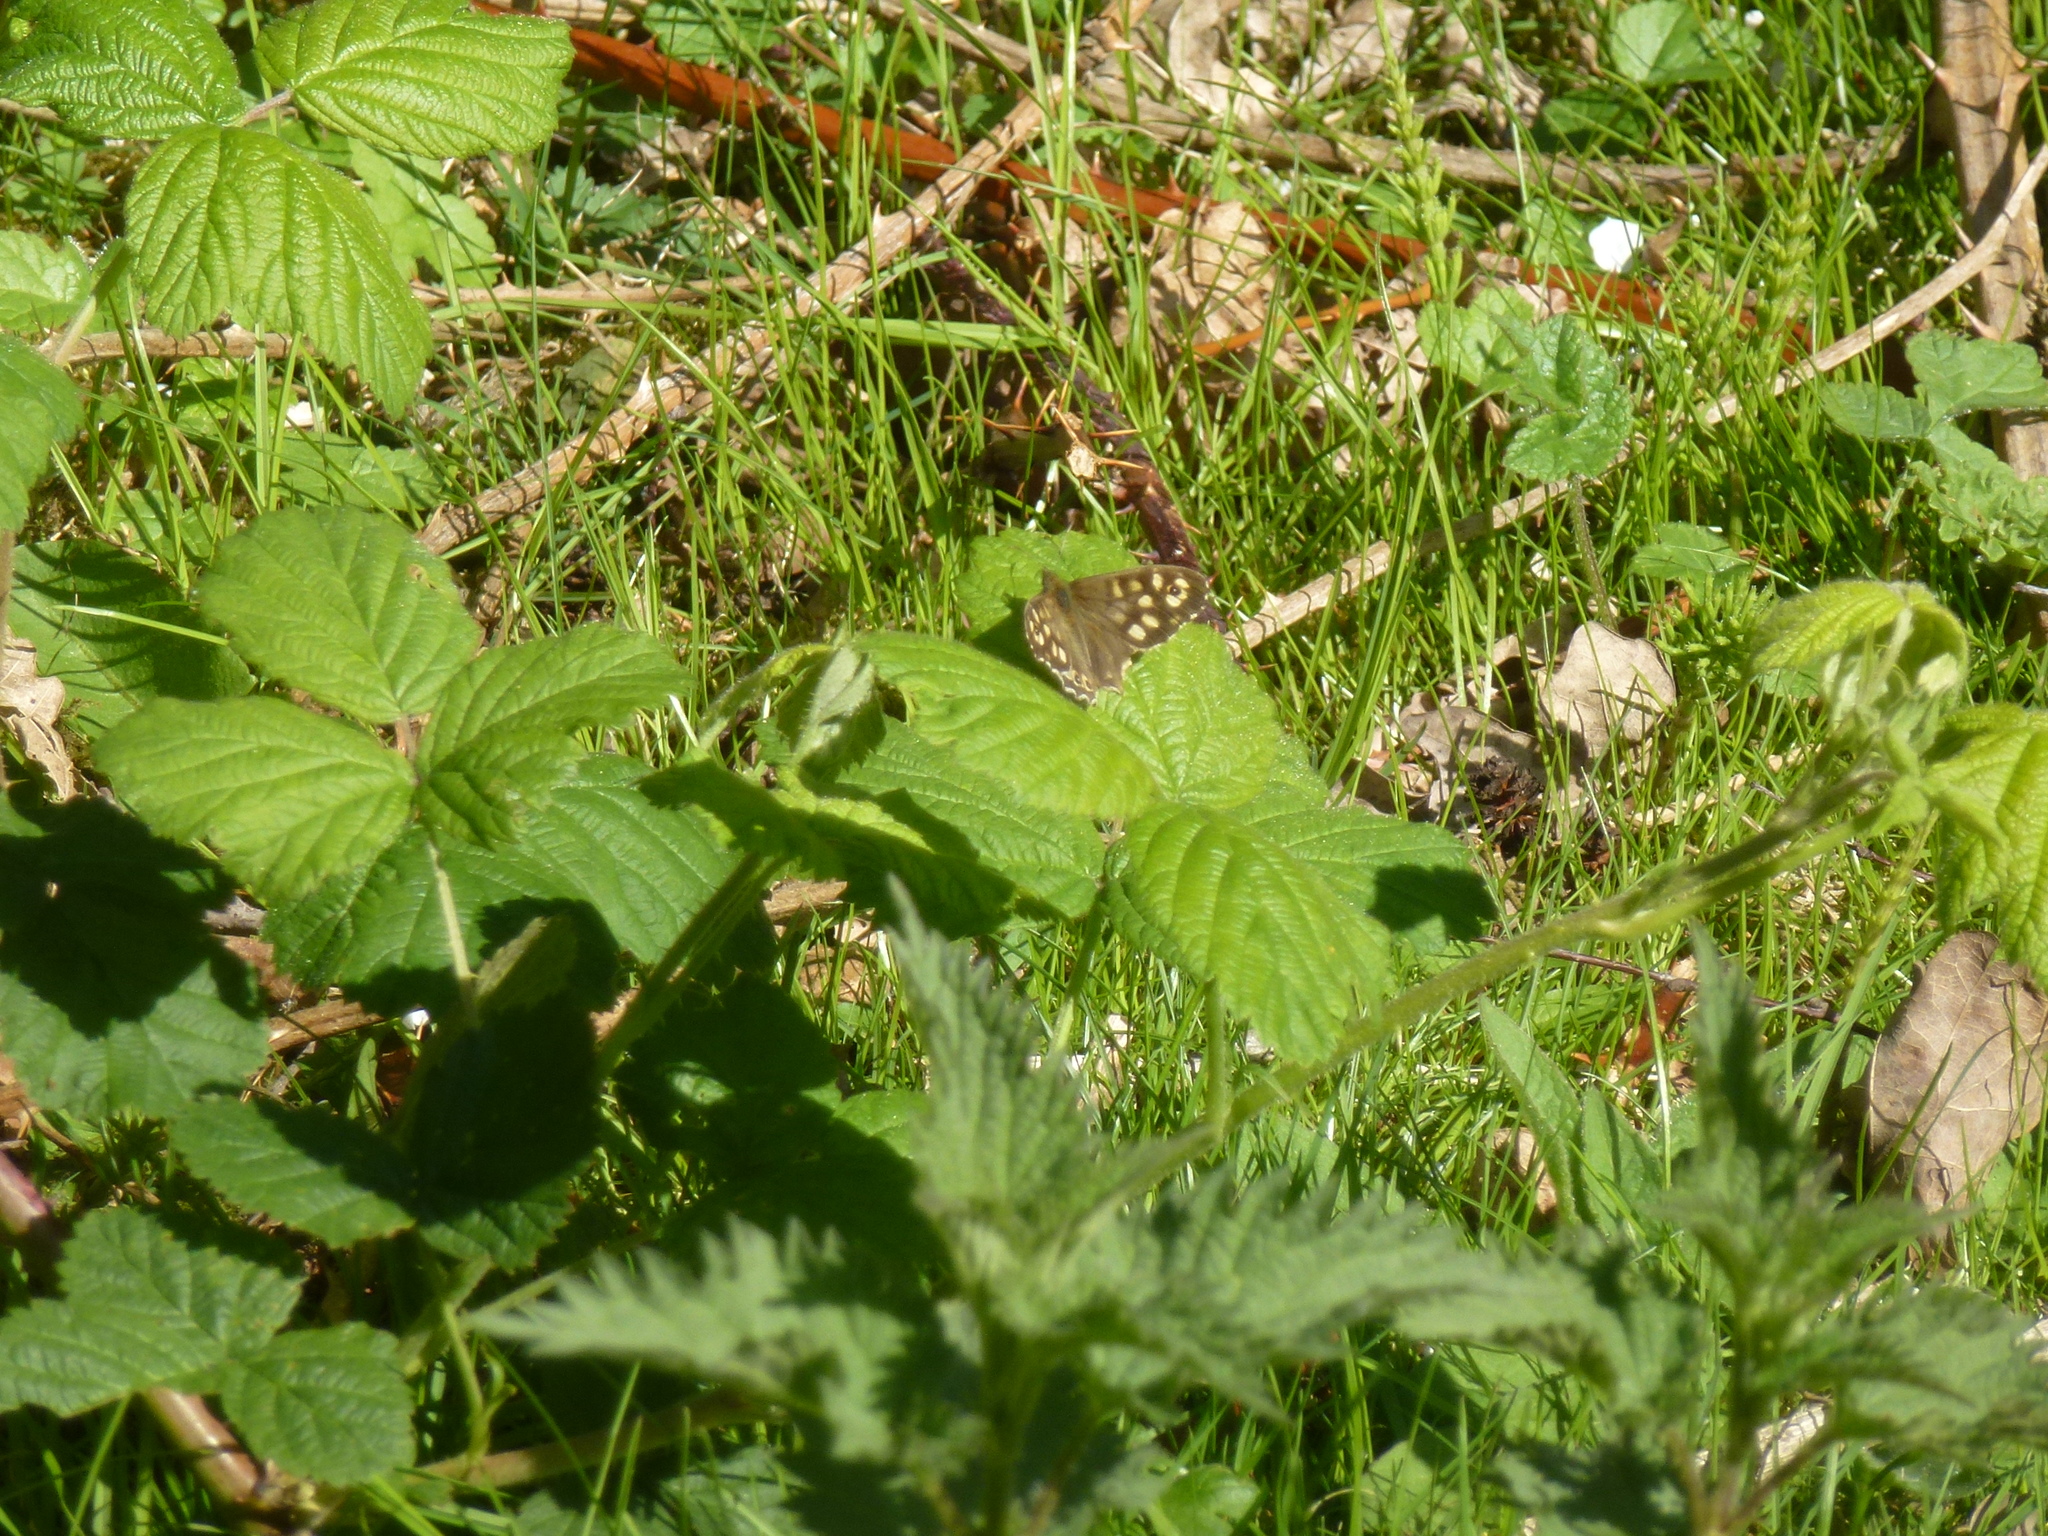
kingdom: Animalia
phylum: Arthropoda
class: Insecta
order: Lepidoptera
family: Nymphalidae
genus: Pararge
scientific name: Pararge aegeria
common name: Speckled wood
